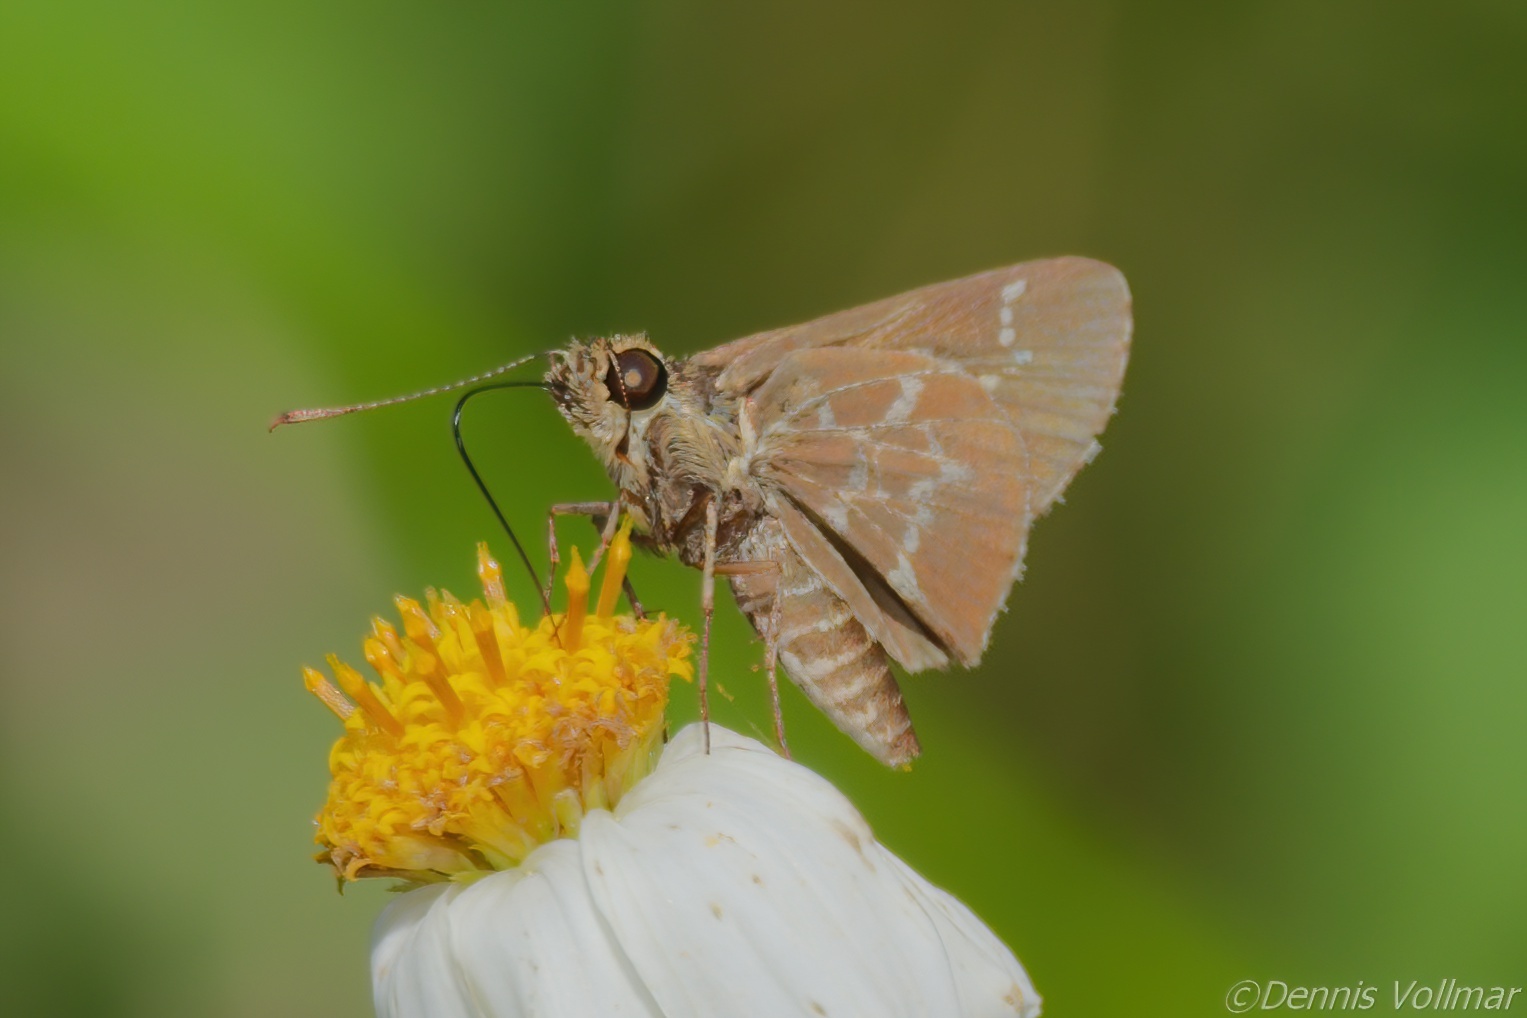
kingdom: Animalia
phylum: Arthropoda
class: Insecta
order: Lepidoptera
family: Hesperiidae
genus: Mastor
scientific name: Mastor aesculapius
